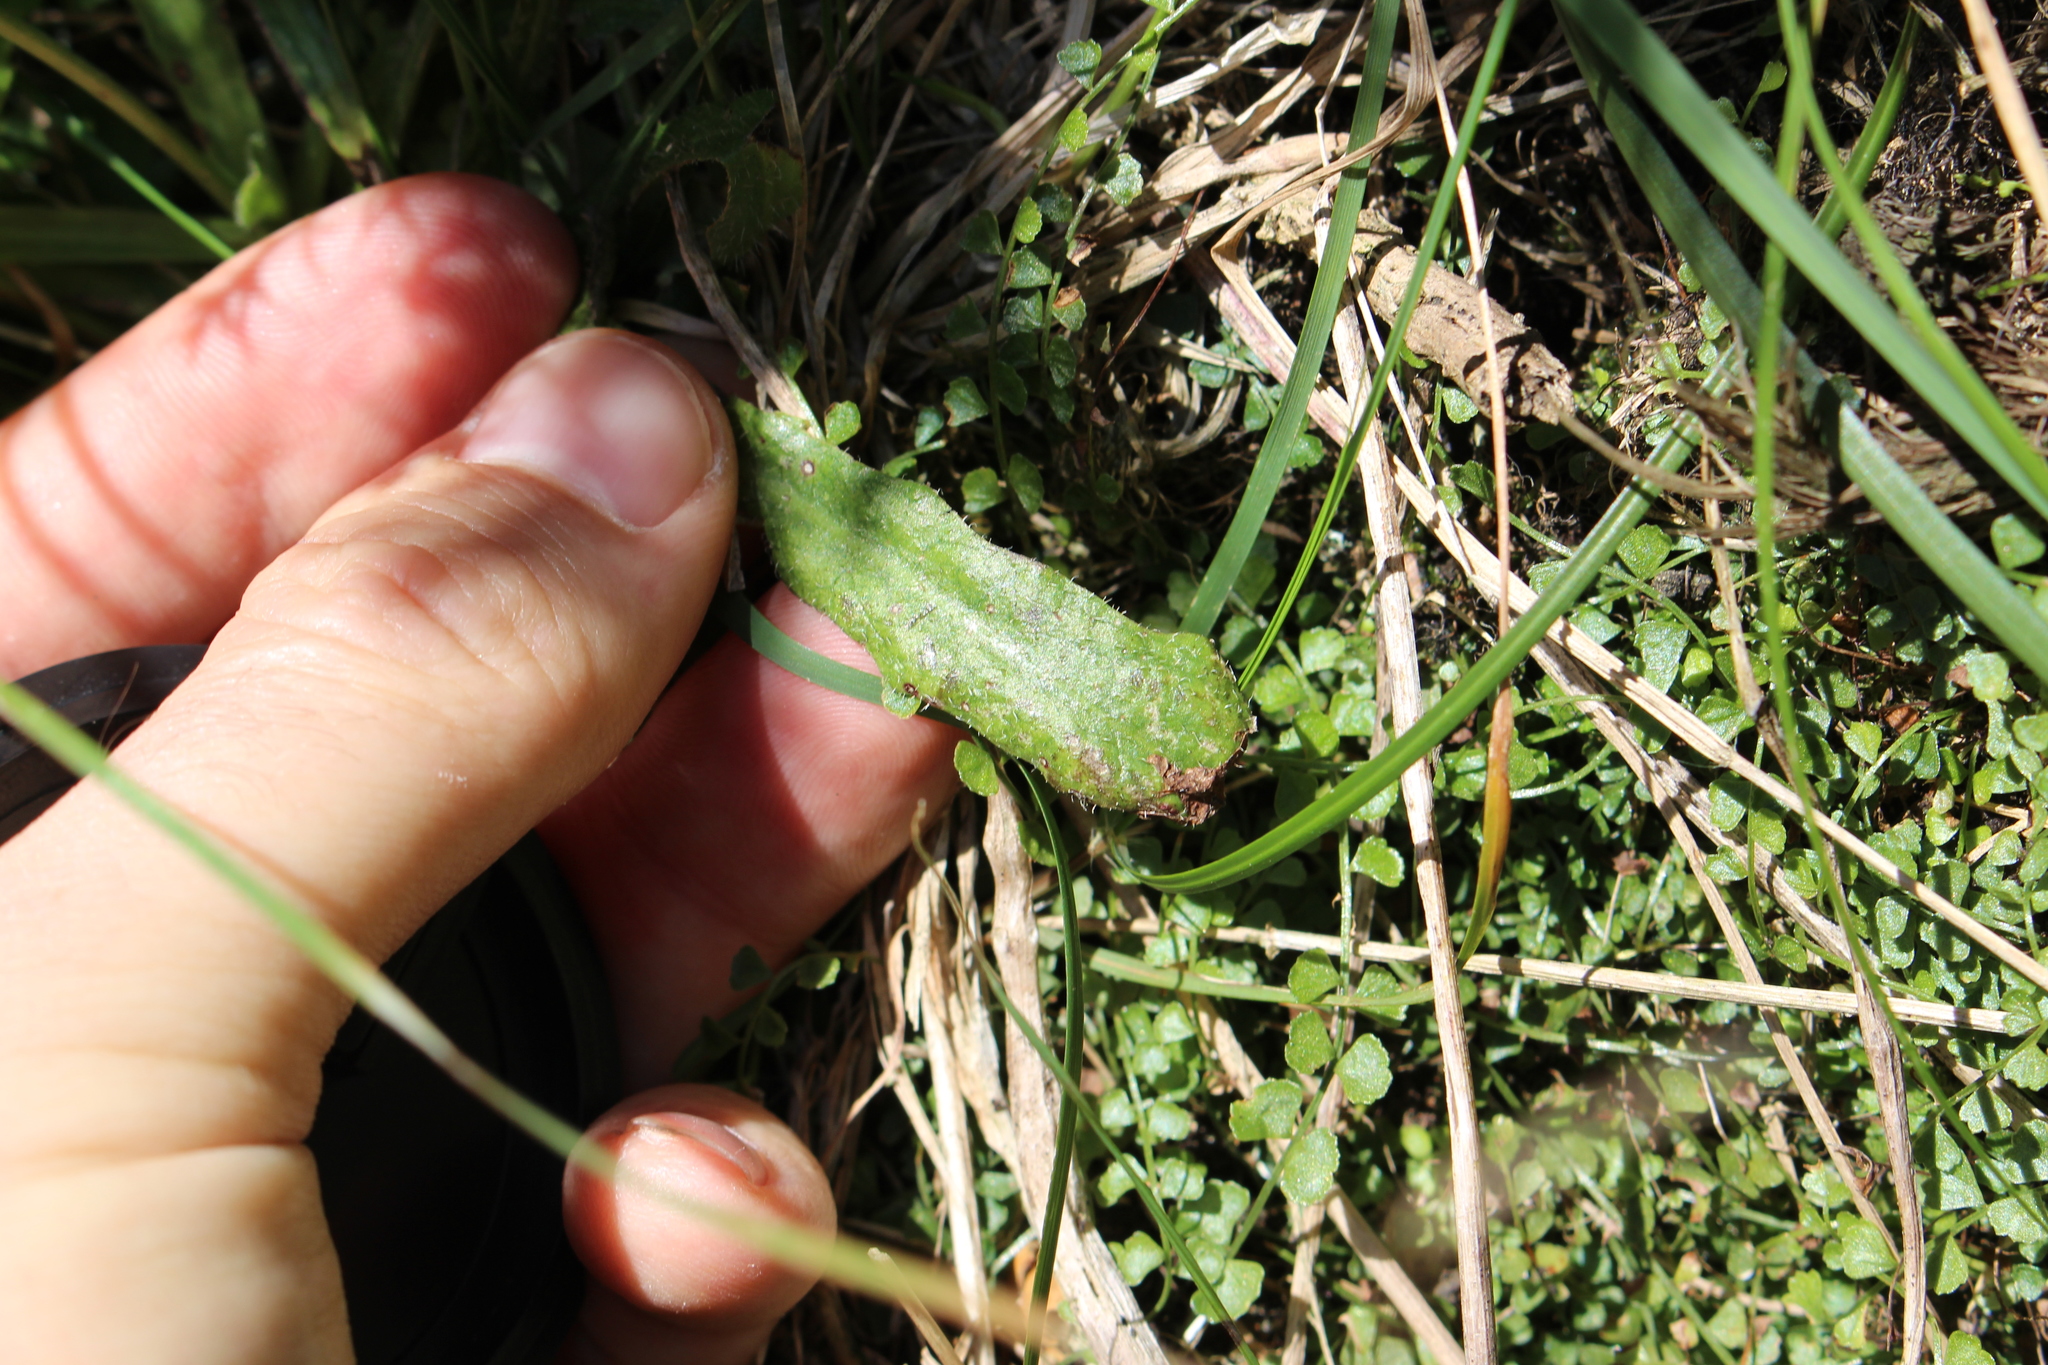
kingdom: Plantae
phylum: Tracheophyta
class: Magnoliopsida
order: Asterales
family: Asteraceae
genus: Hypochaeris
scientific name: Hypochaeris radicata
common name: Flatweed
